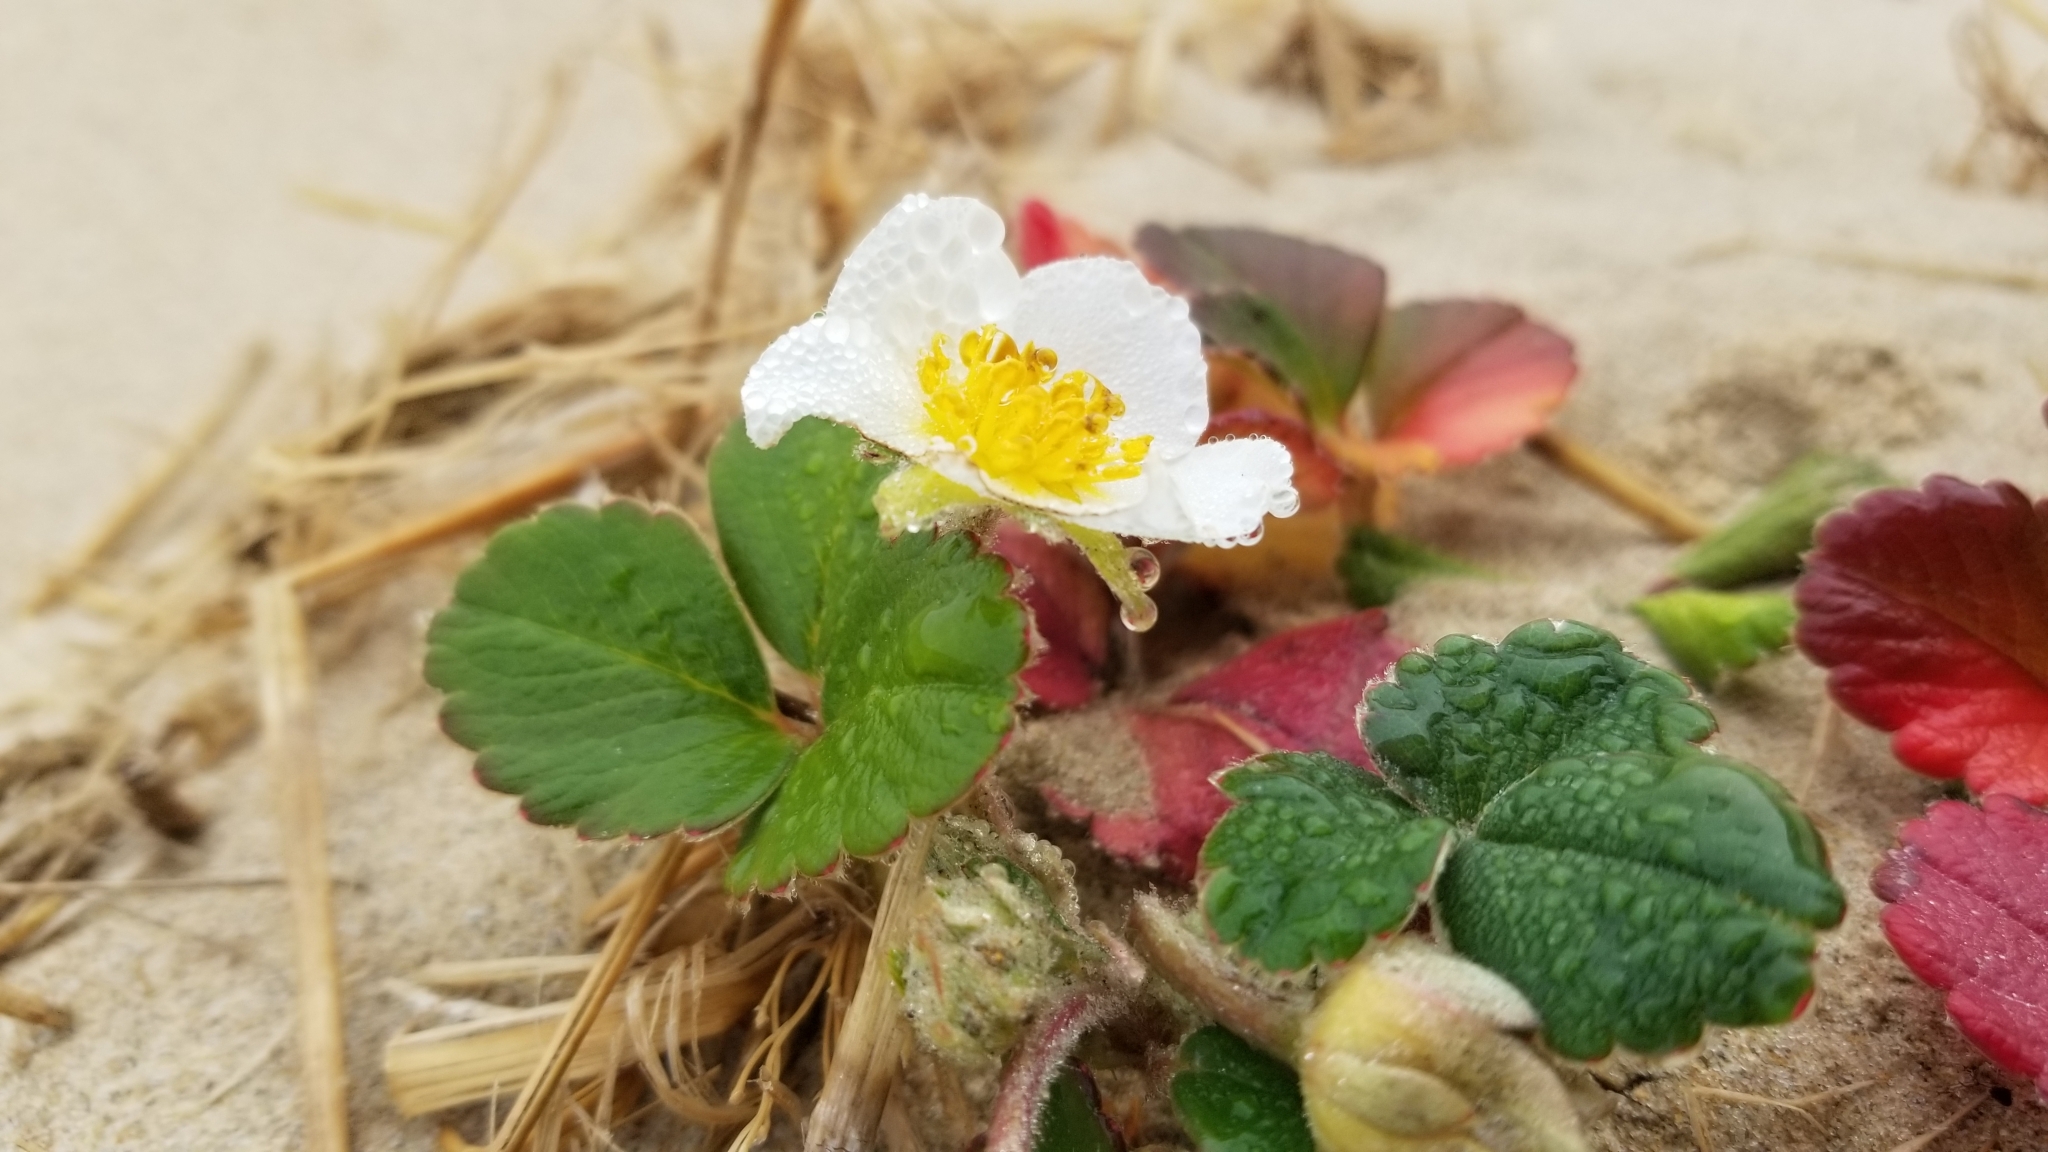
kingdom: Plantae
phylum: Tracheophyta
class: Magnoliopsida
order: Rosales
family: Rosaceae
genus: Fragaria
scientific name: Fragaria chiloensis
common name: Beach strawberry
